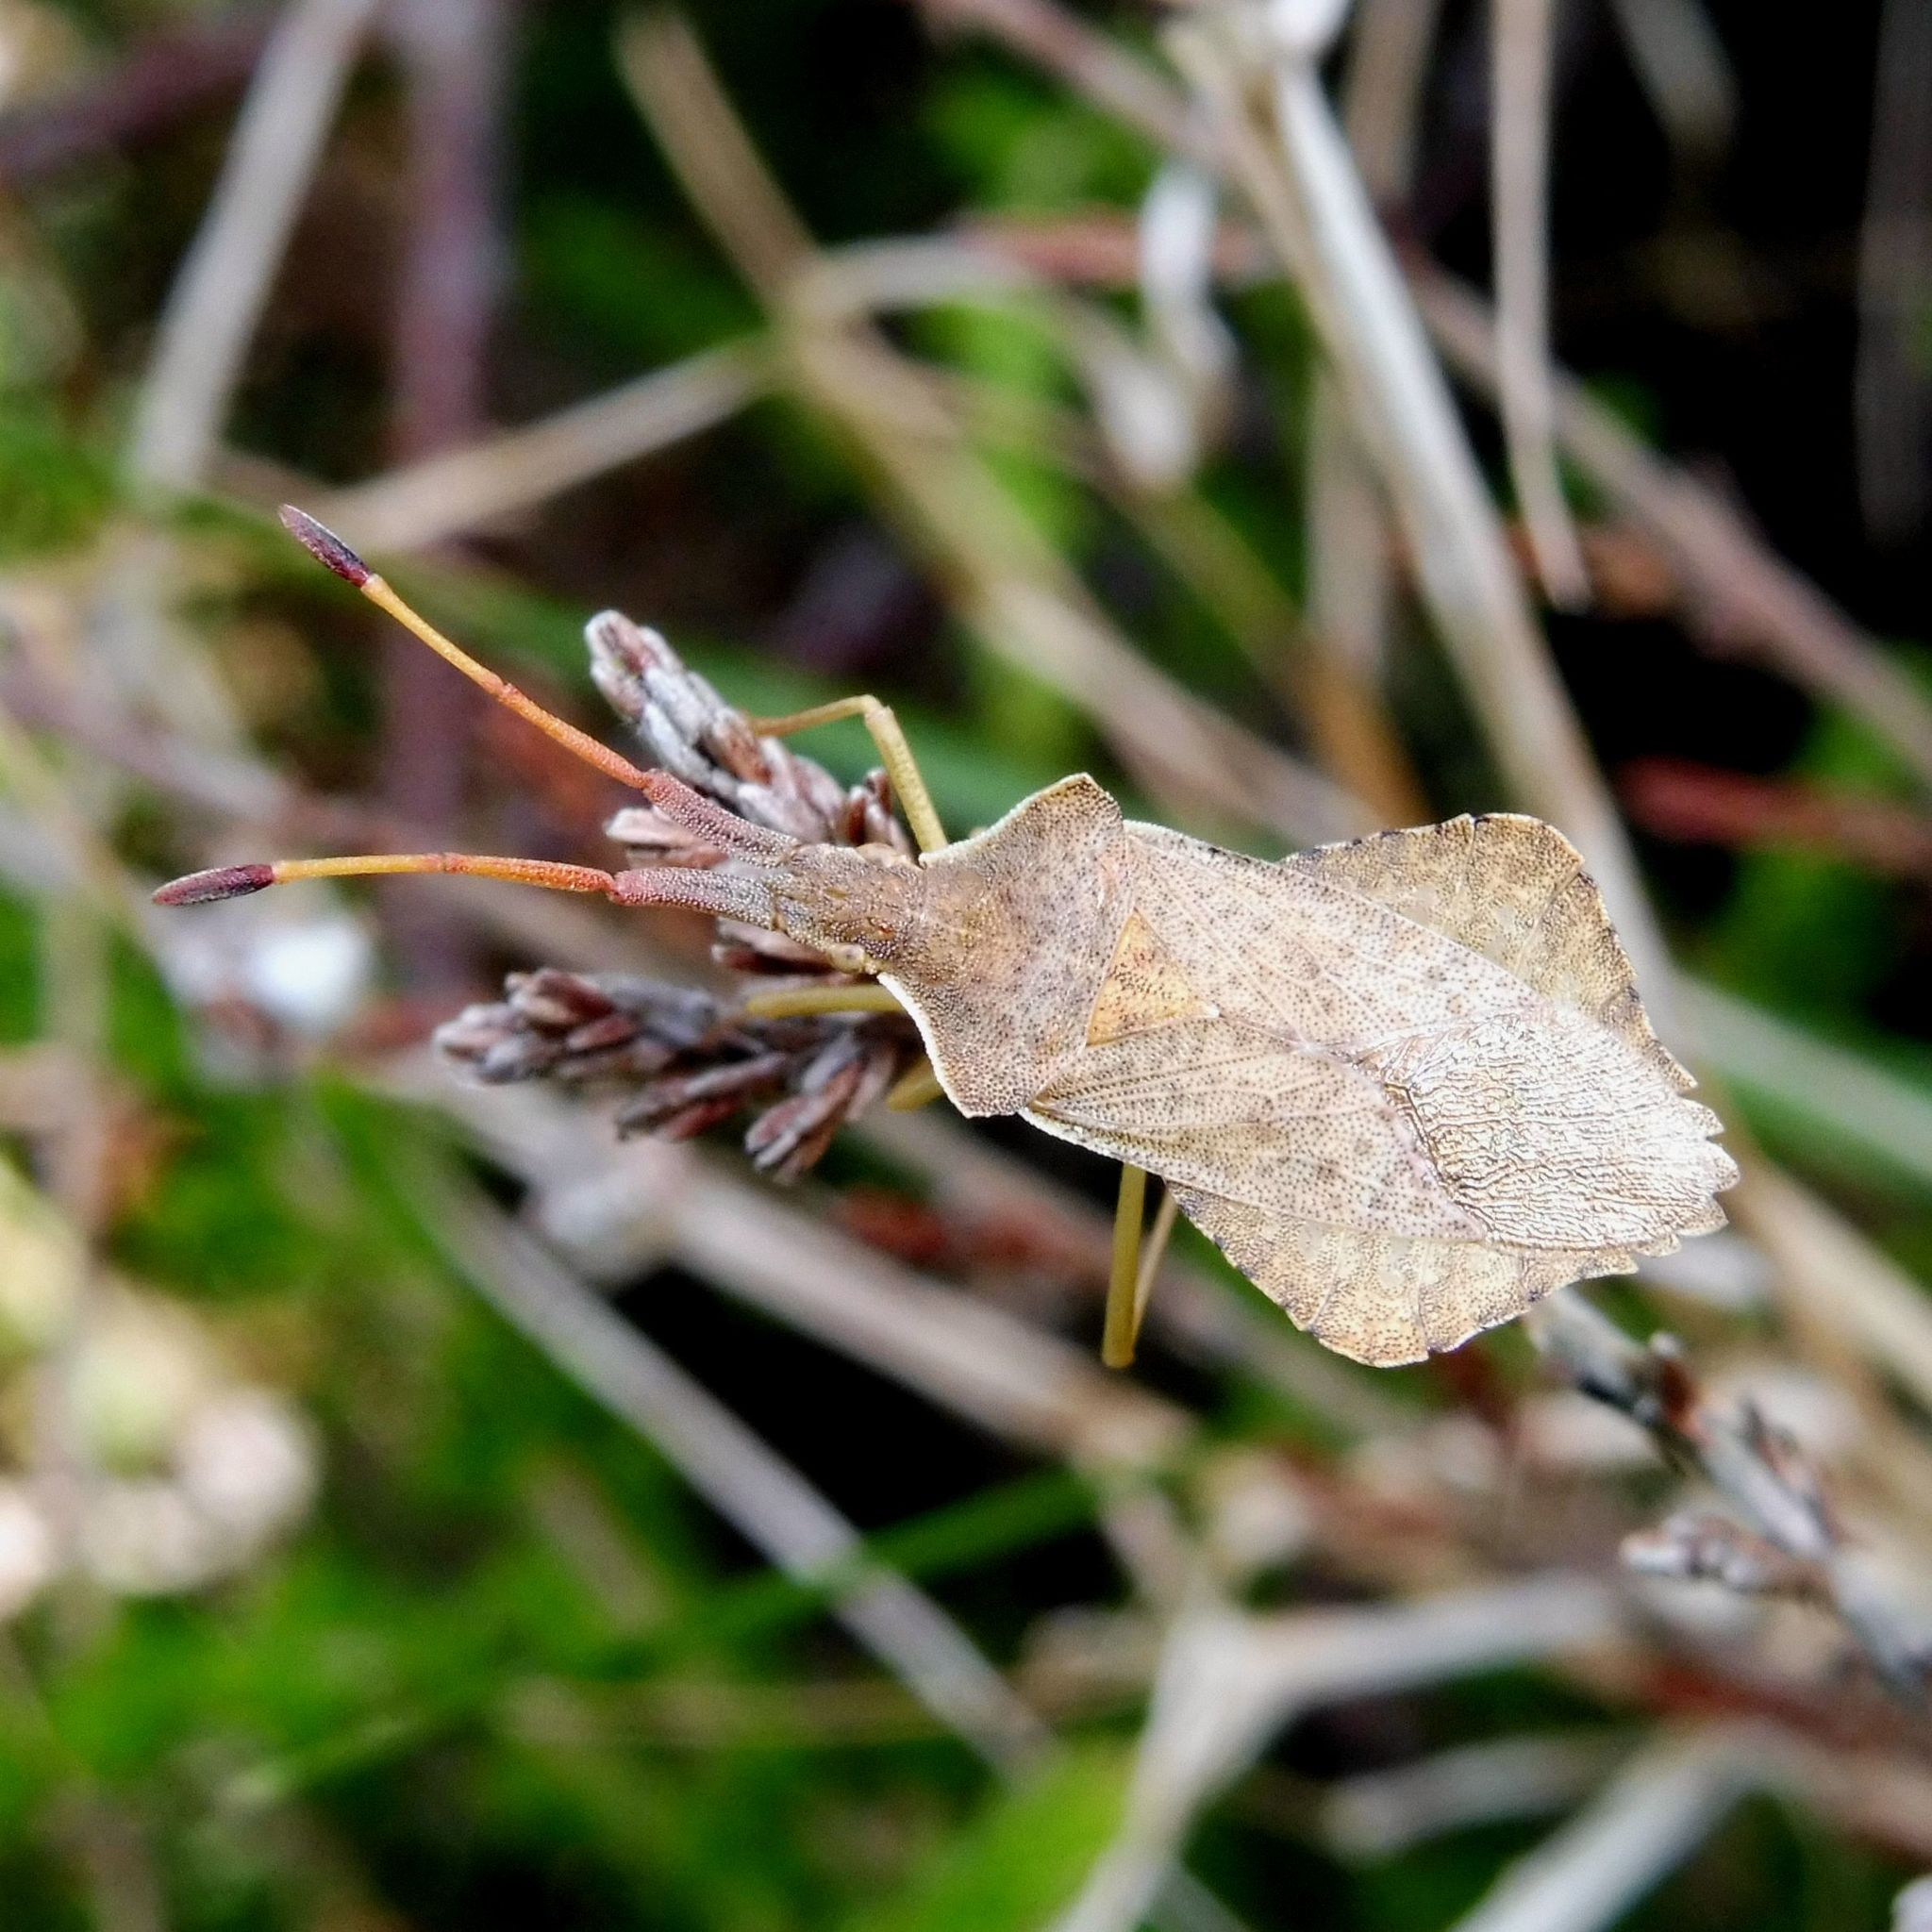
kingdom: Animalia
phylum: Arthropoda
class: Insecta
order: Hemiptera
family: Coreidae
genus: Syromastus
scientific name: Syromastus rhombeus
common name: Rhombic leatherbug
